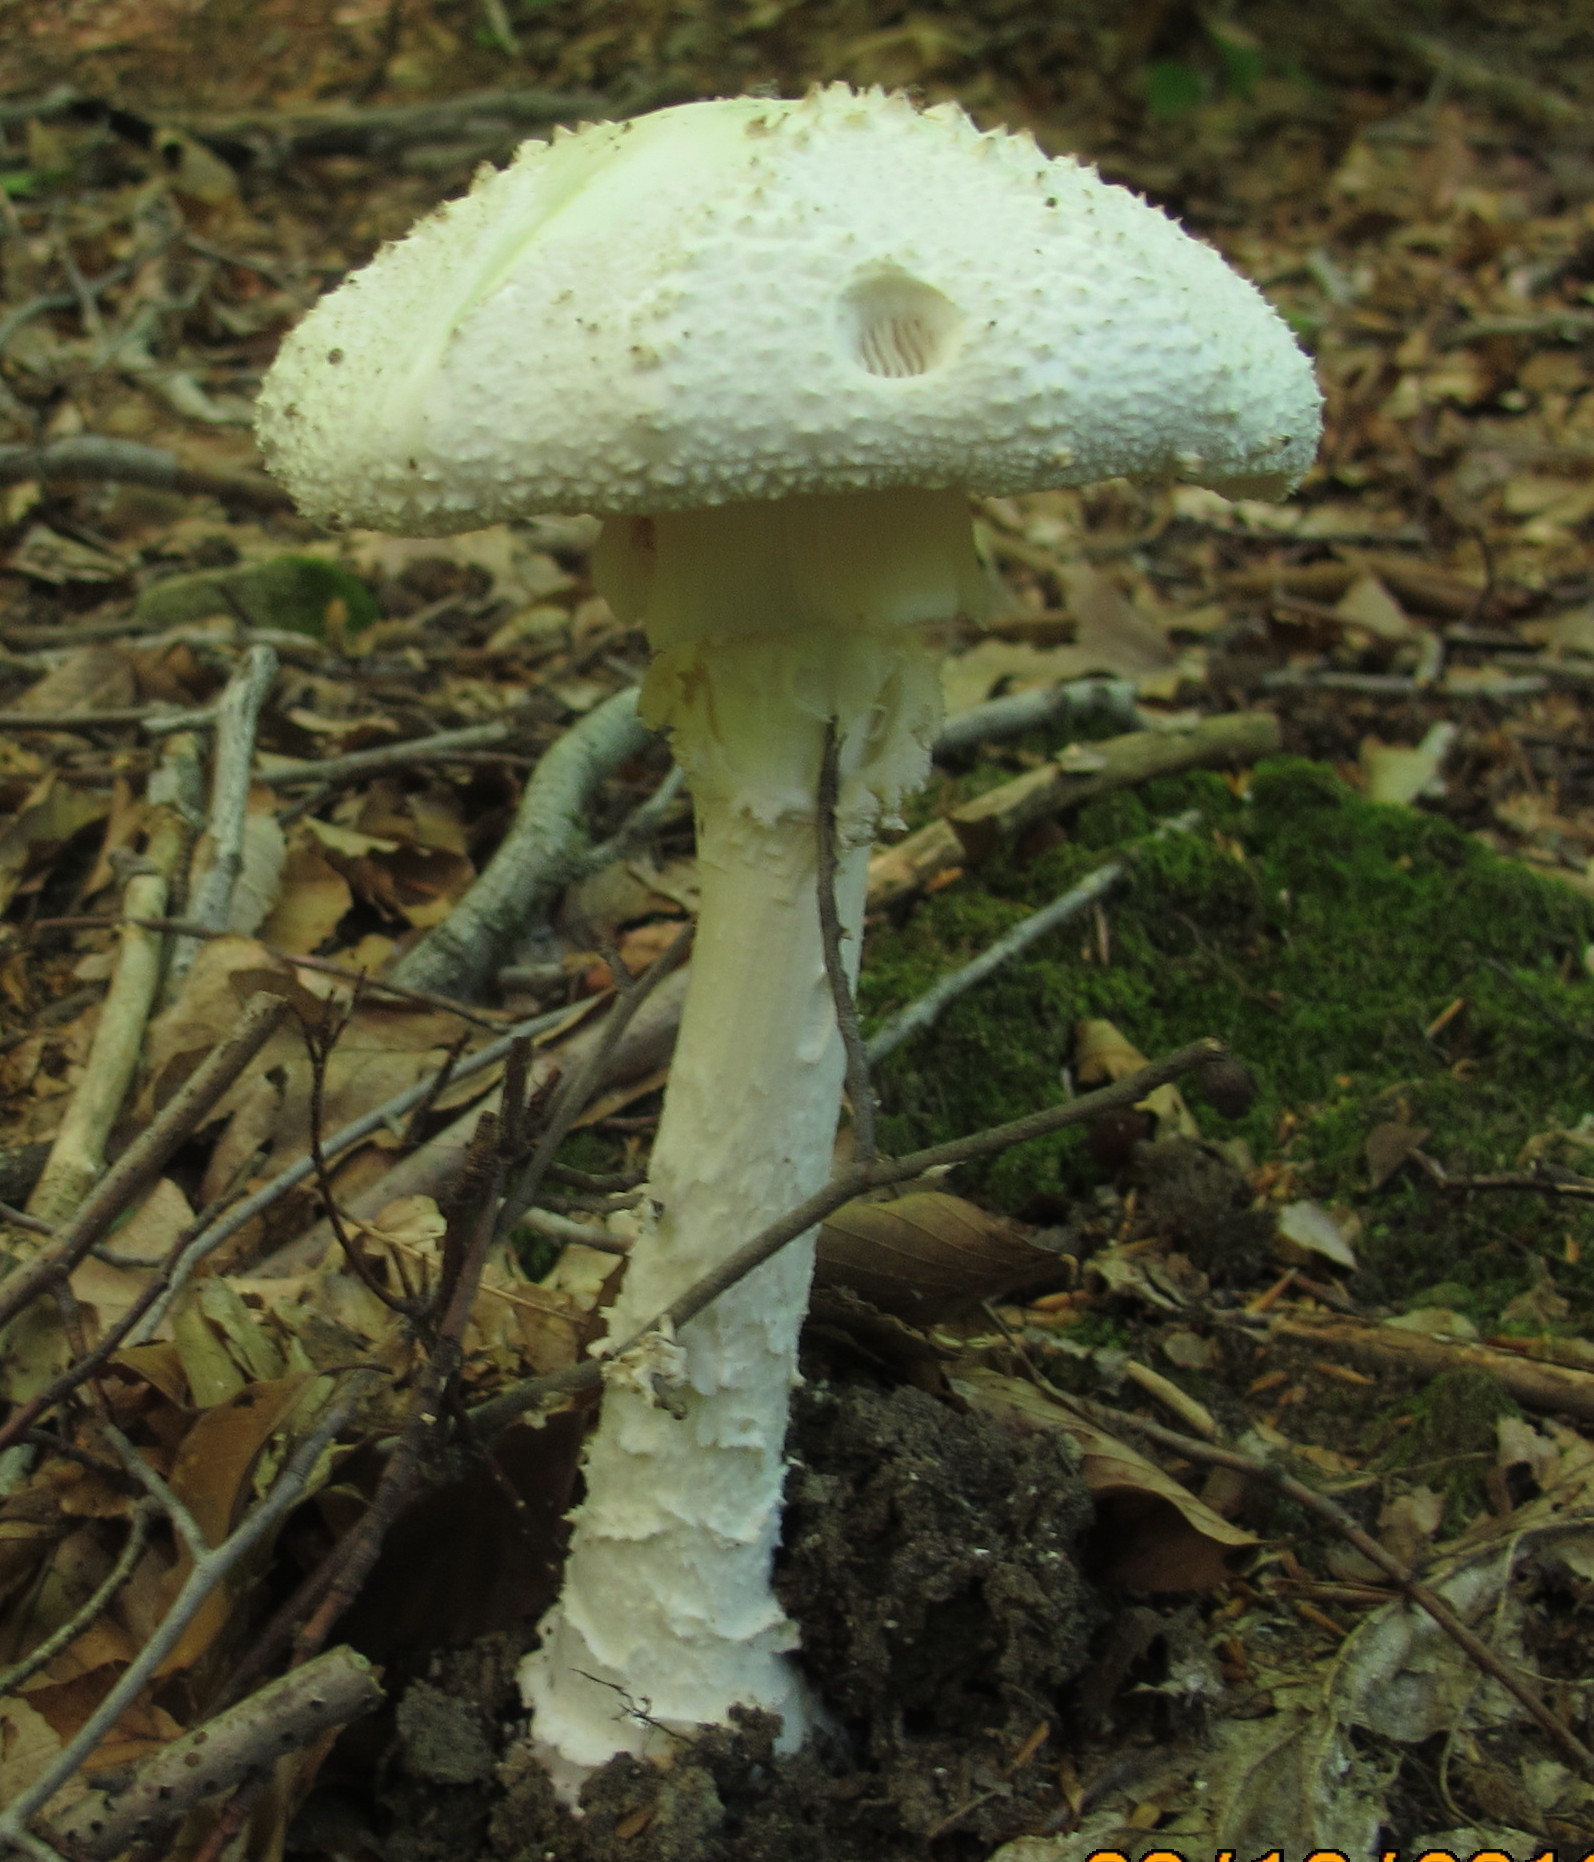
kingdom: Fungi
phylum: Basidiomycota
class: Agaricomycetes
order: Agaricales
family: Amanitaceae
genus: Amanita
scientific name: Amanita cokeri
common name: Coker's amanita
